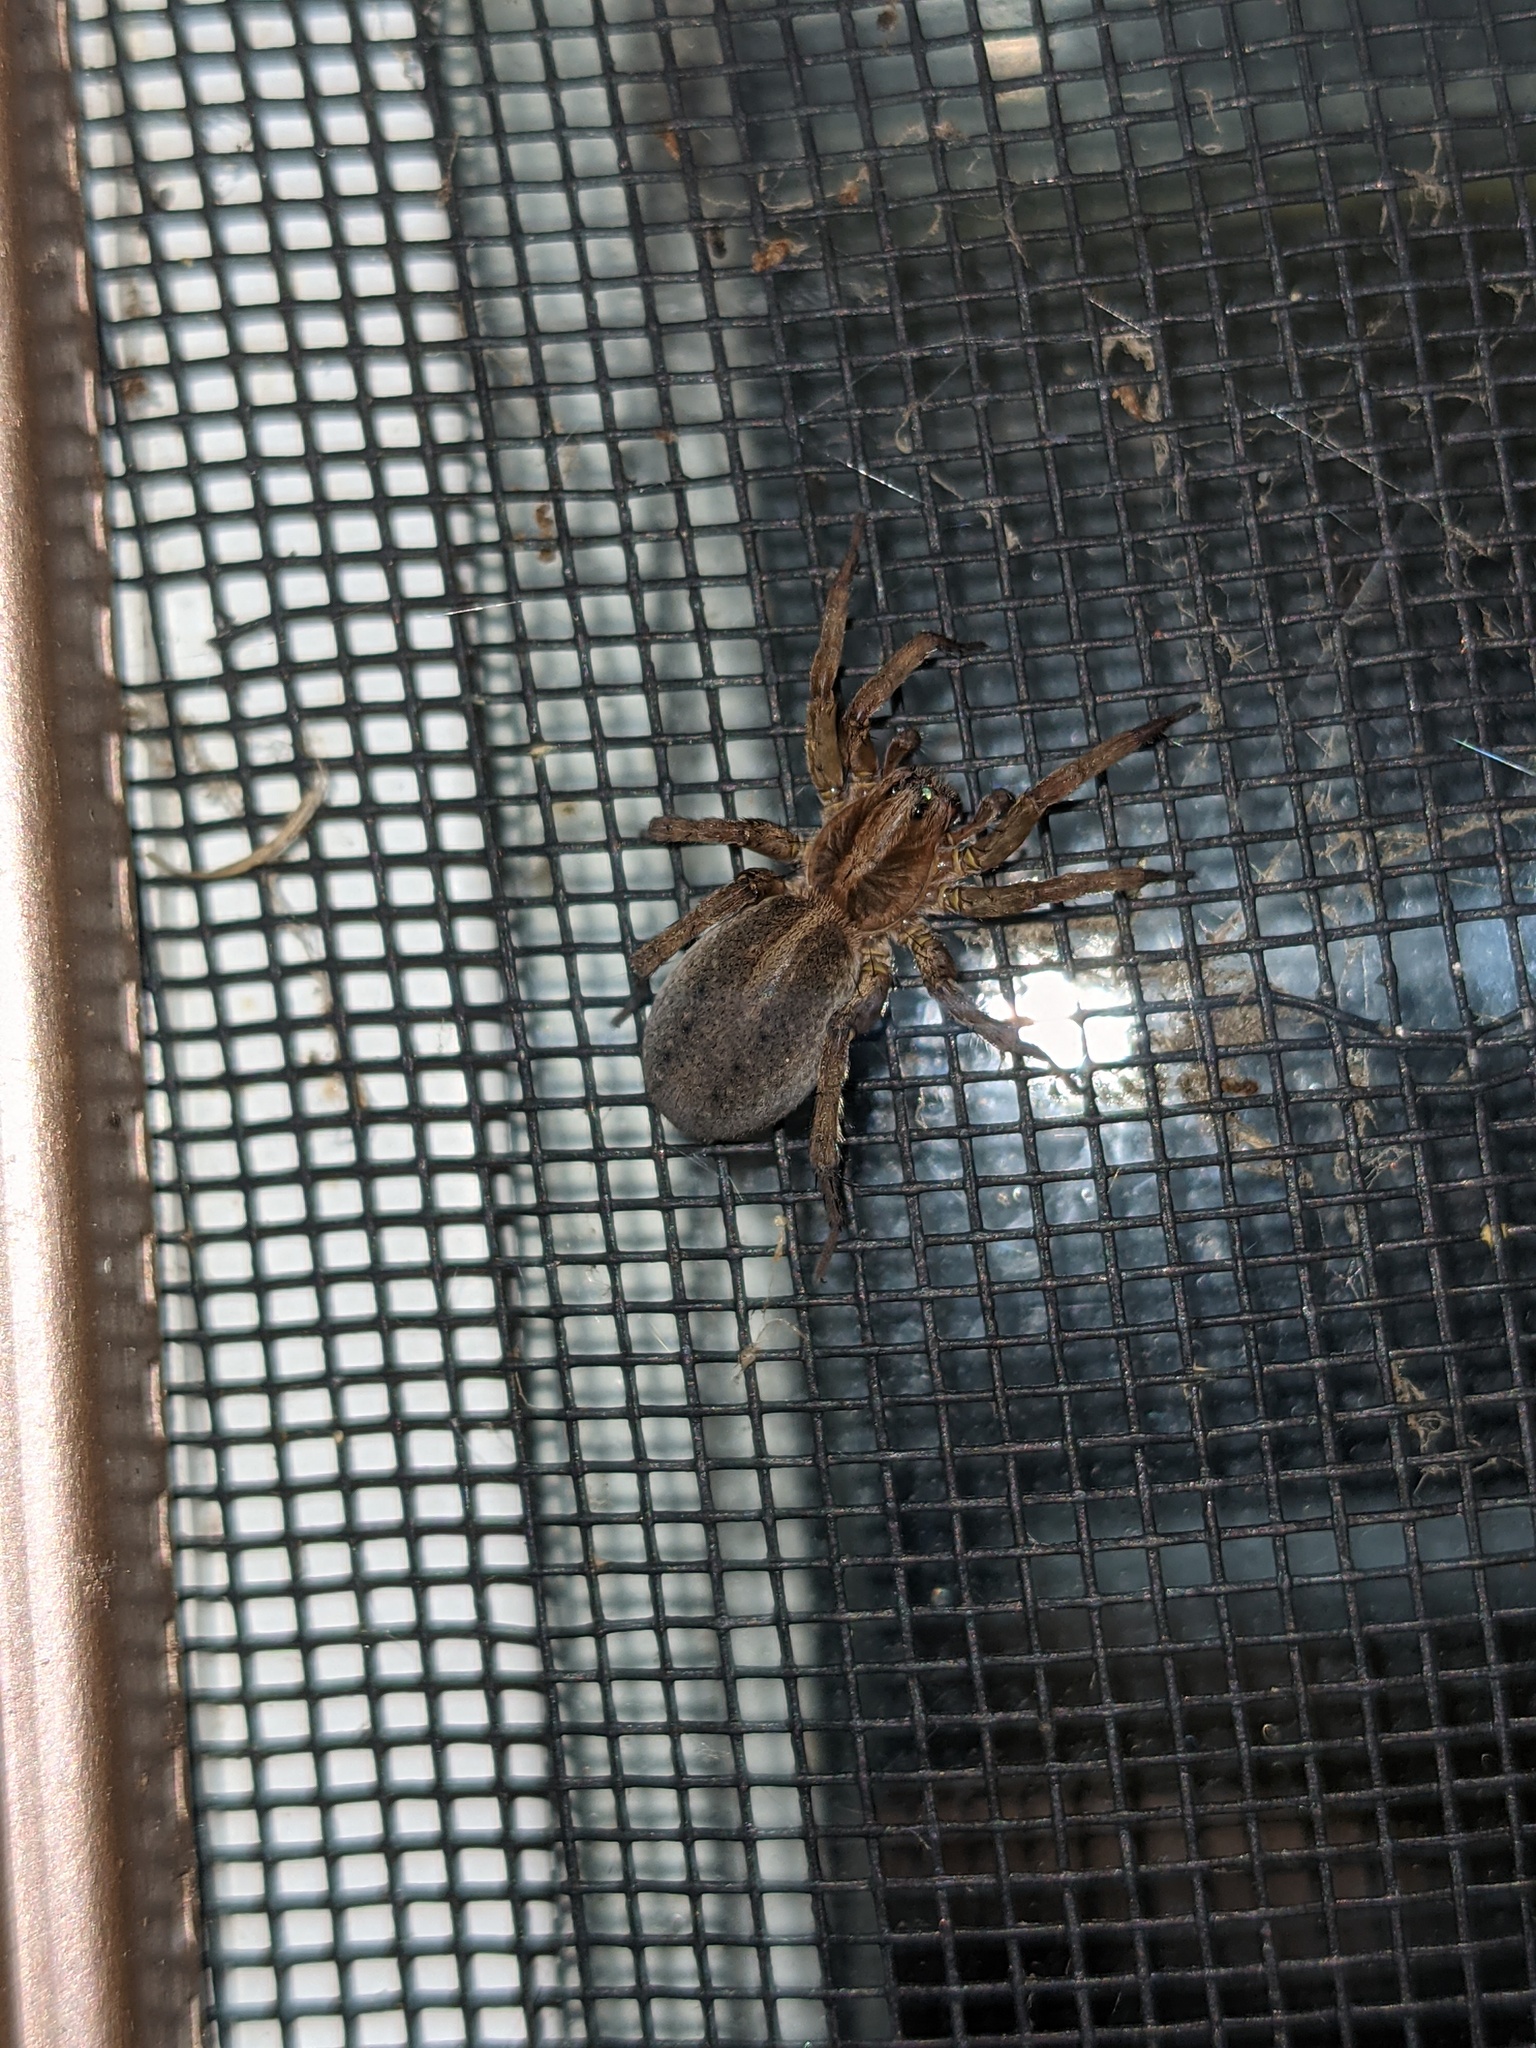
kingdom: Animalia
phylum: Arthropoda
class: Arachnida
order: Araneae
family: Lycosidae
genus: Trochosa
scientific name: Trochosa
